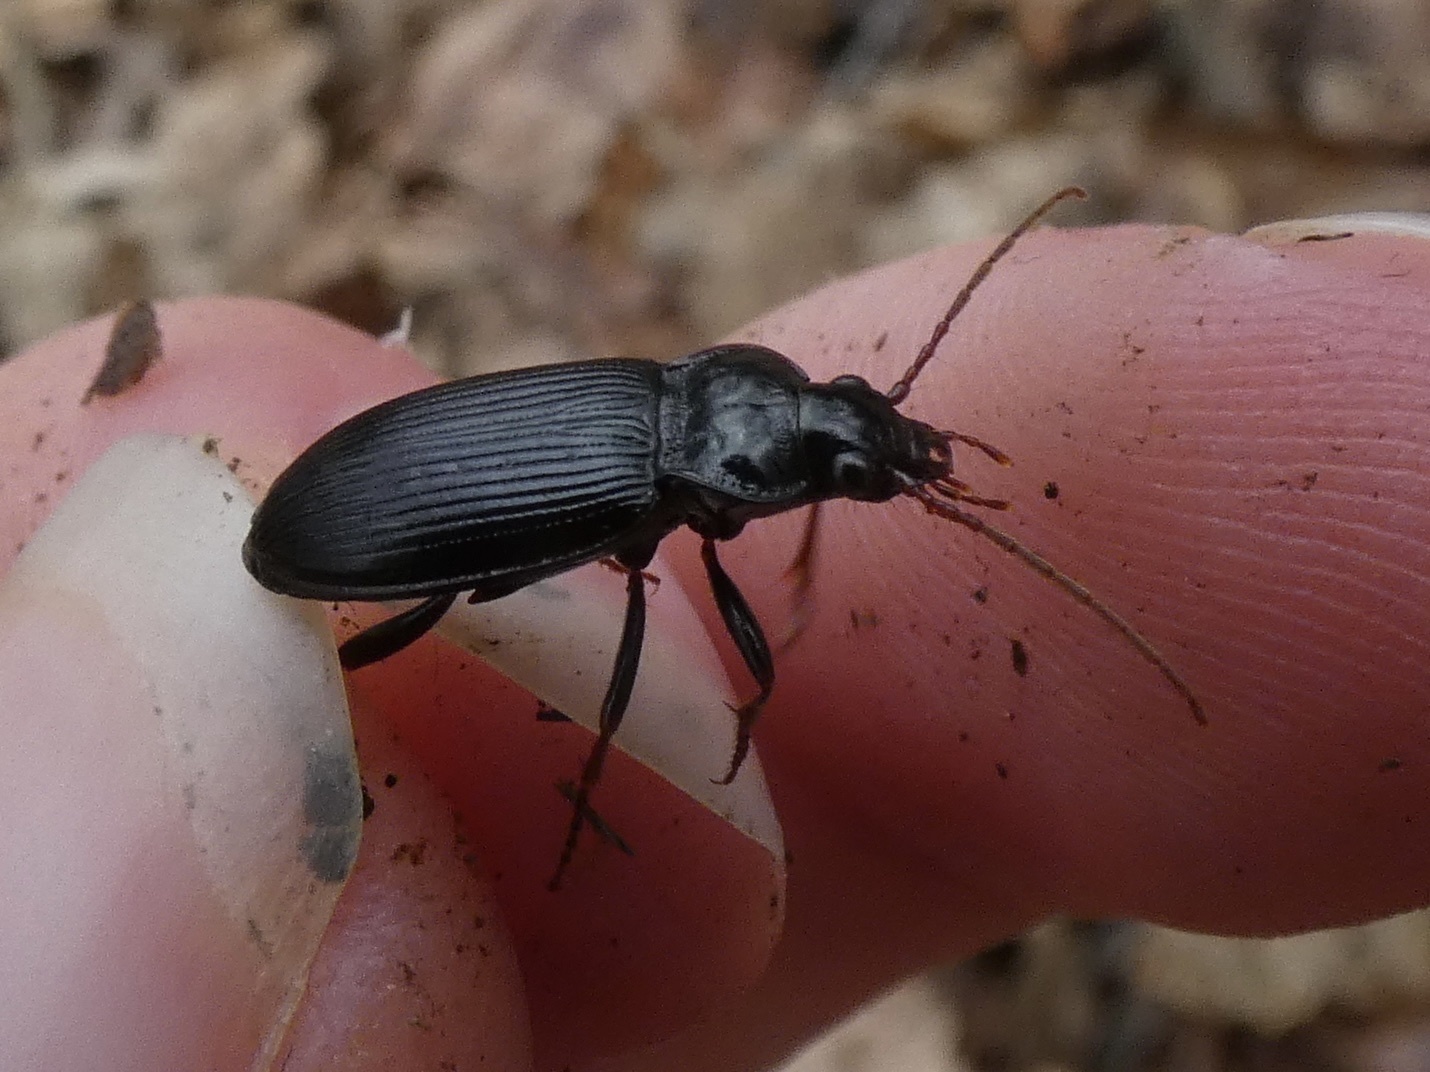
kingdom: Animalia
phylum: Arthropoda
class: Insecta
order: Coleoptera
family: Carabidae
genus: Nebria
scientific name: Nebria brevicollis
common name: Short-necked gazelle beetle
